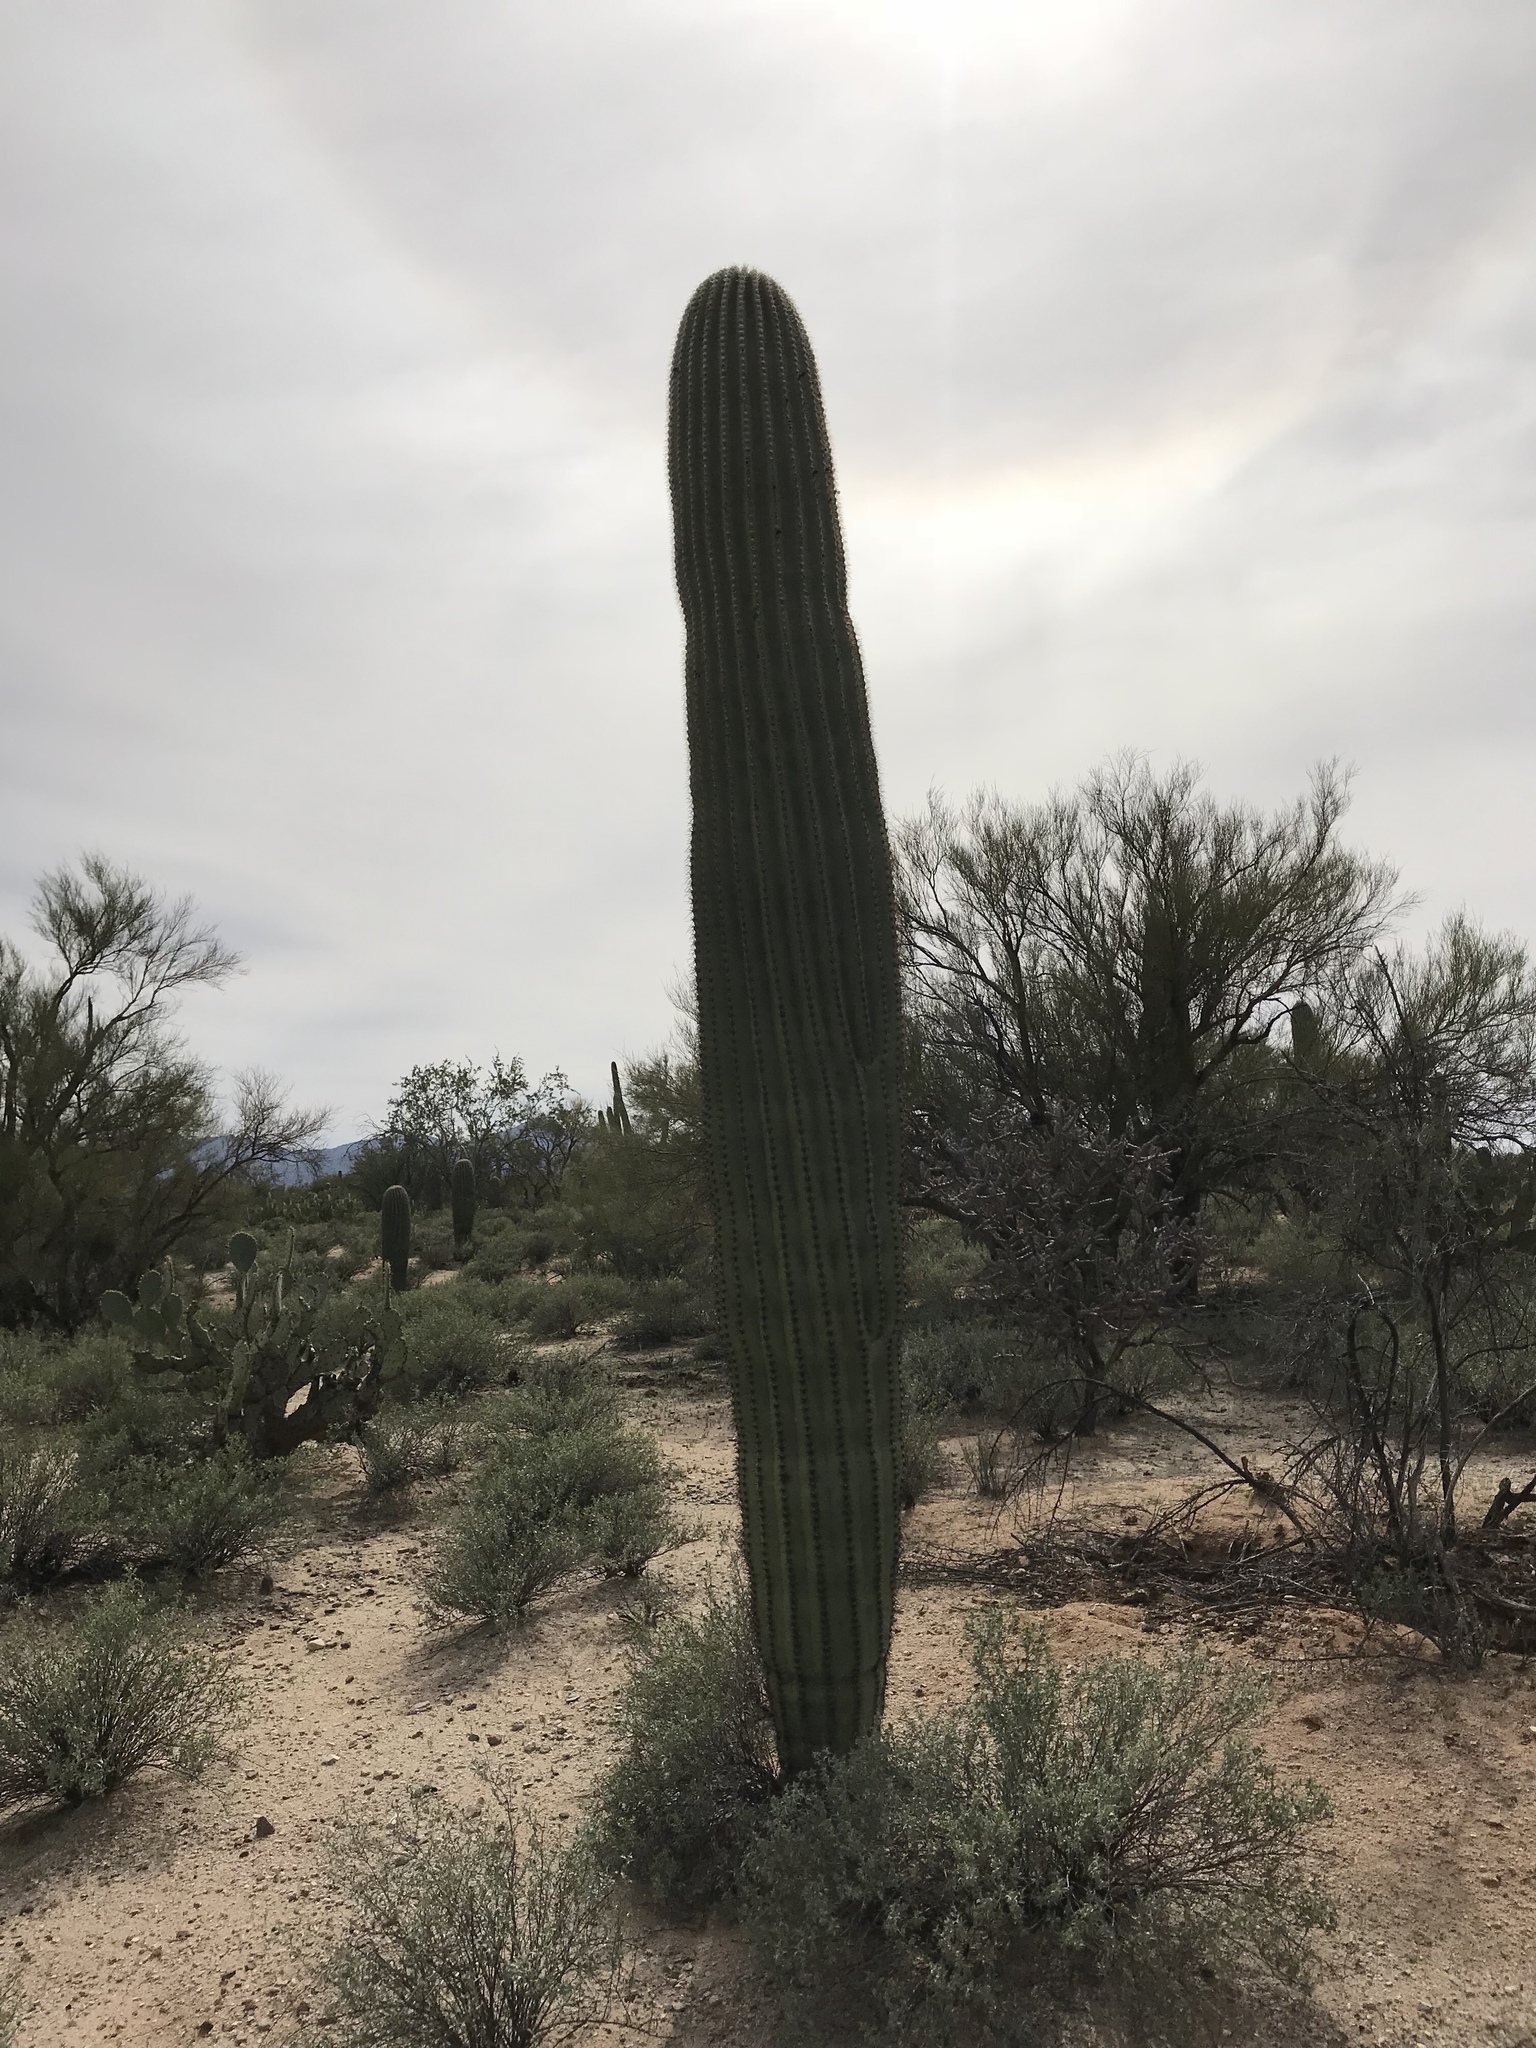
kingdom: Plantae
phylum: Tracheophyta
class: Magnoliopsida
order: Caryophyllales
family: Cactaceae
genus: Carnegiea
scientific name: Carnegiea gigantea
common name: Saguaro
